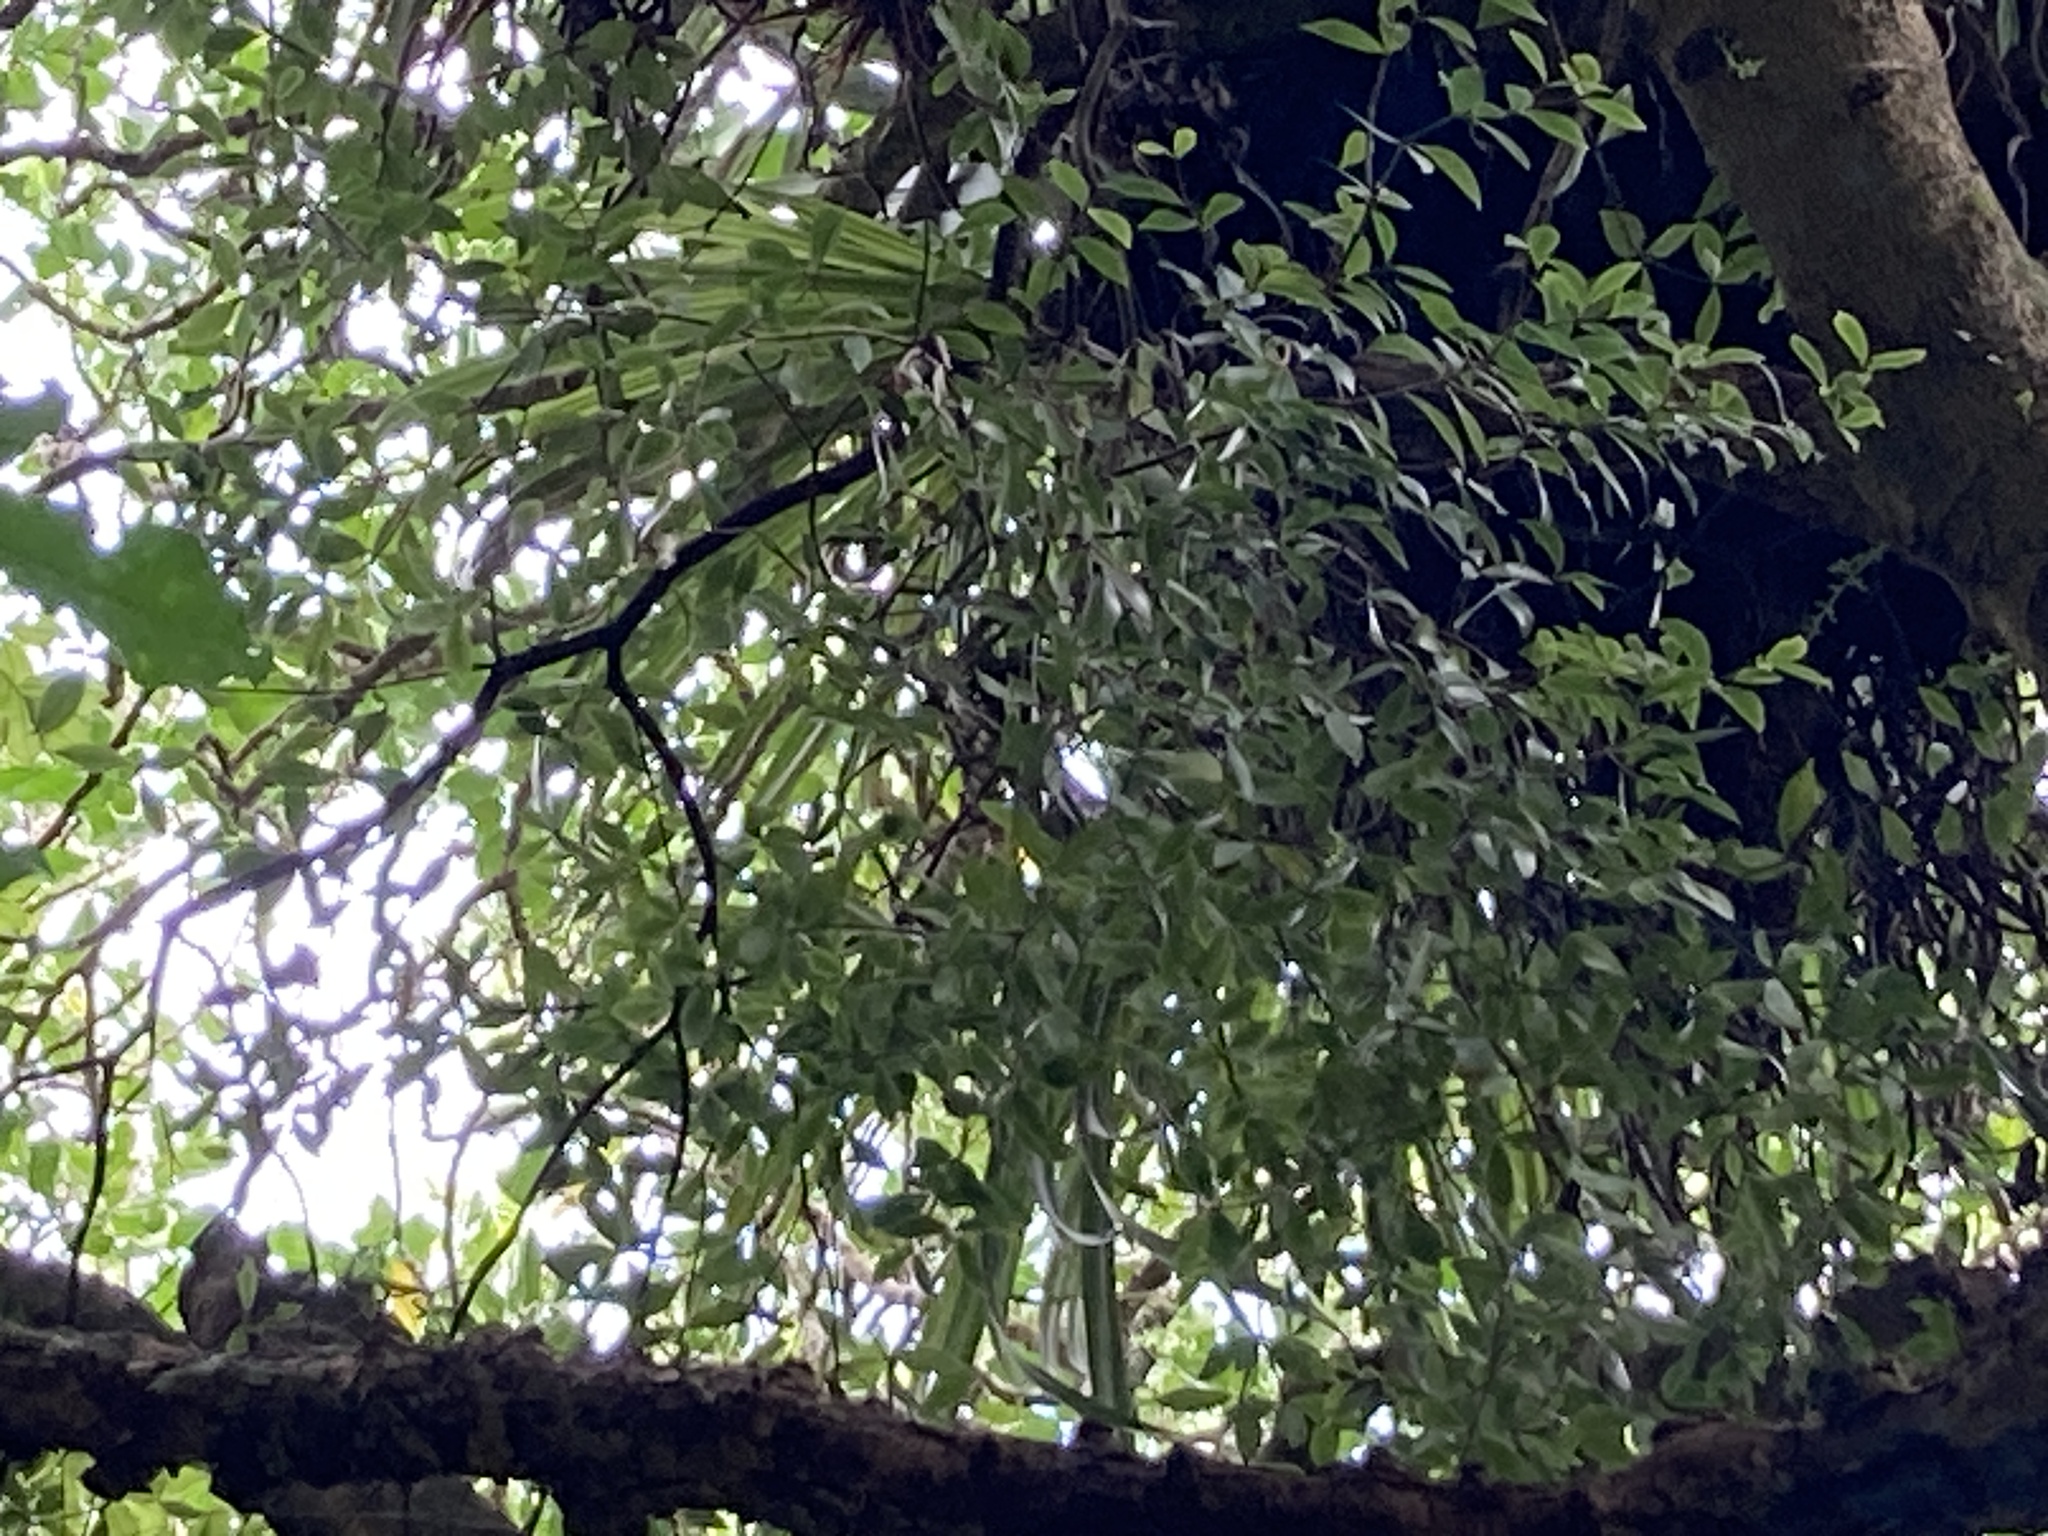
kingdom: Plantae
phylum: Tracheophyta
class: Magnoliopsida
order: Apiales
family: Pittosporaceae
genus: Pittosporum
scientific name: Pittosporum cornifolium
